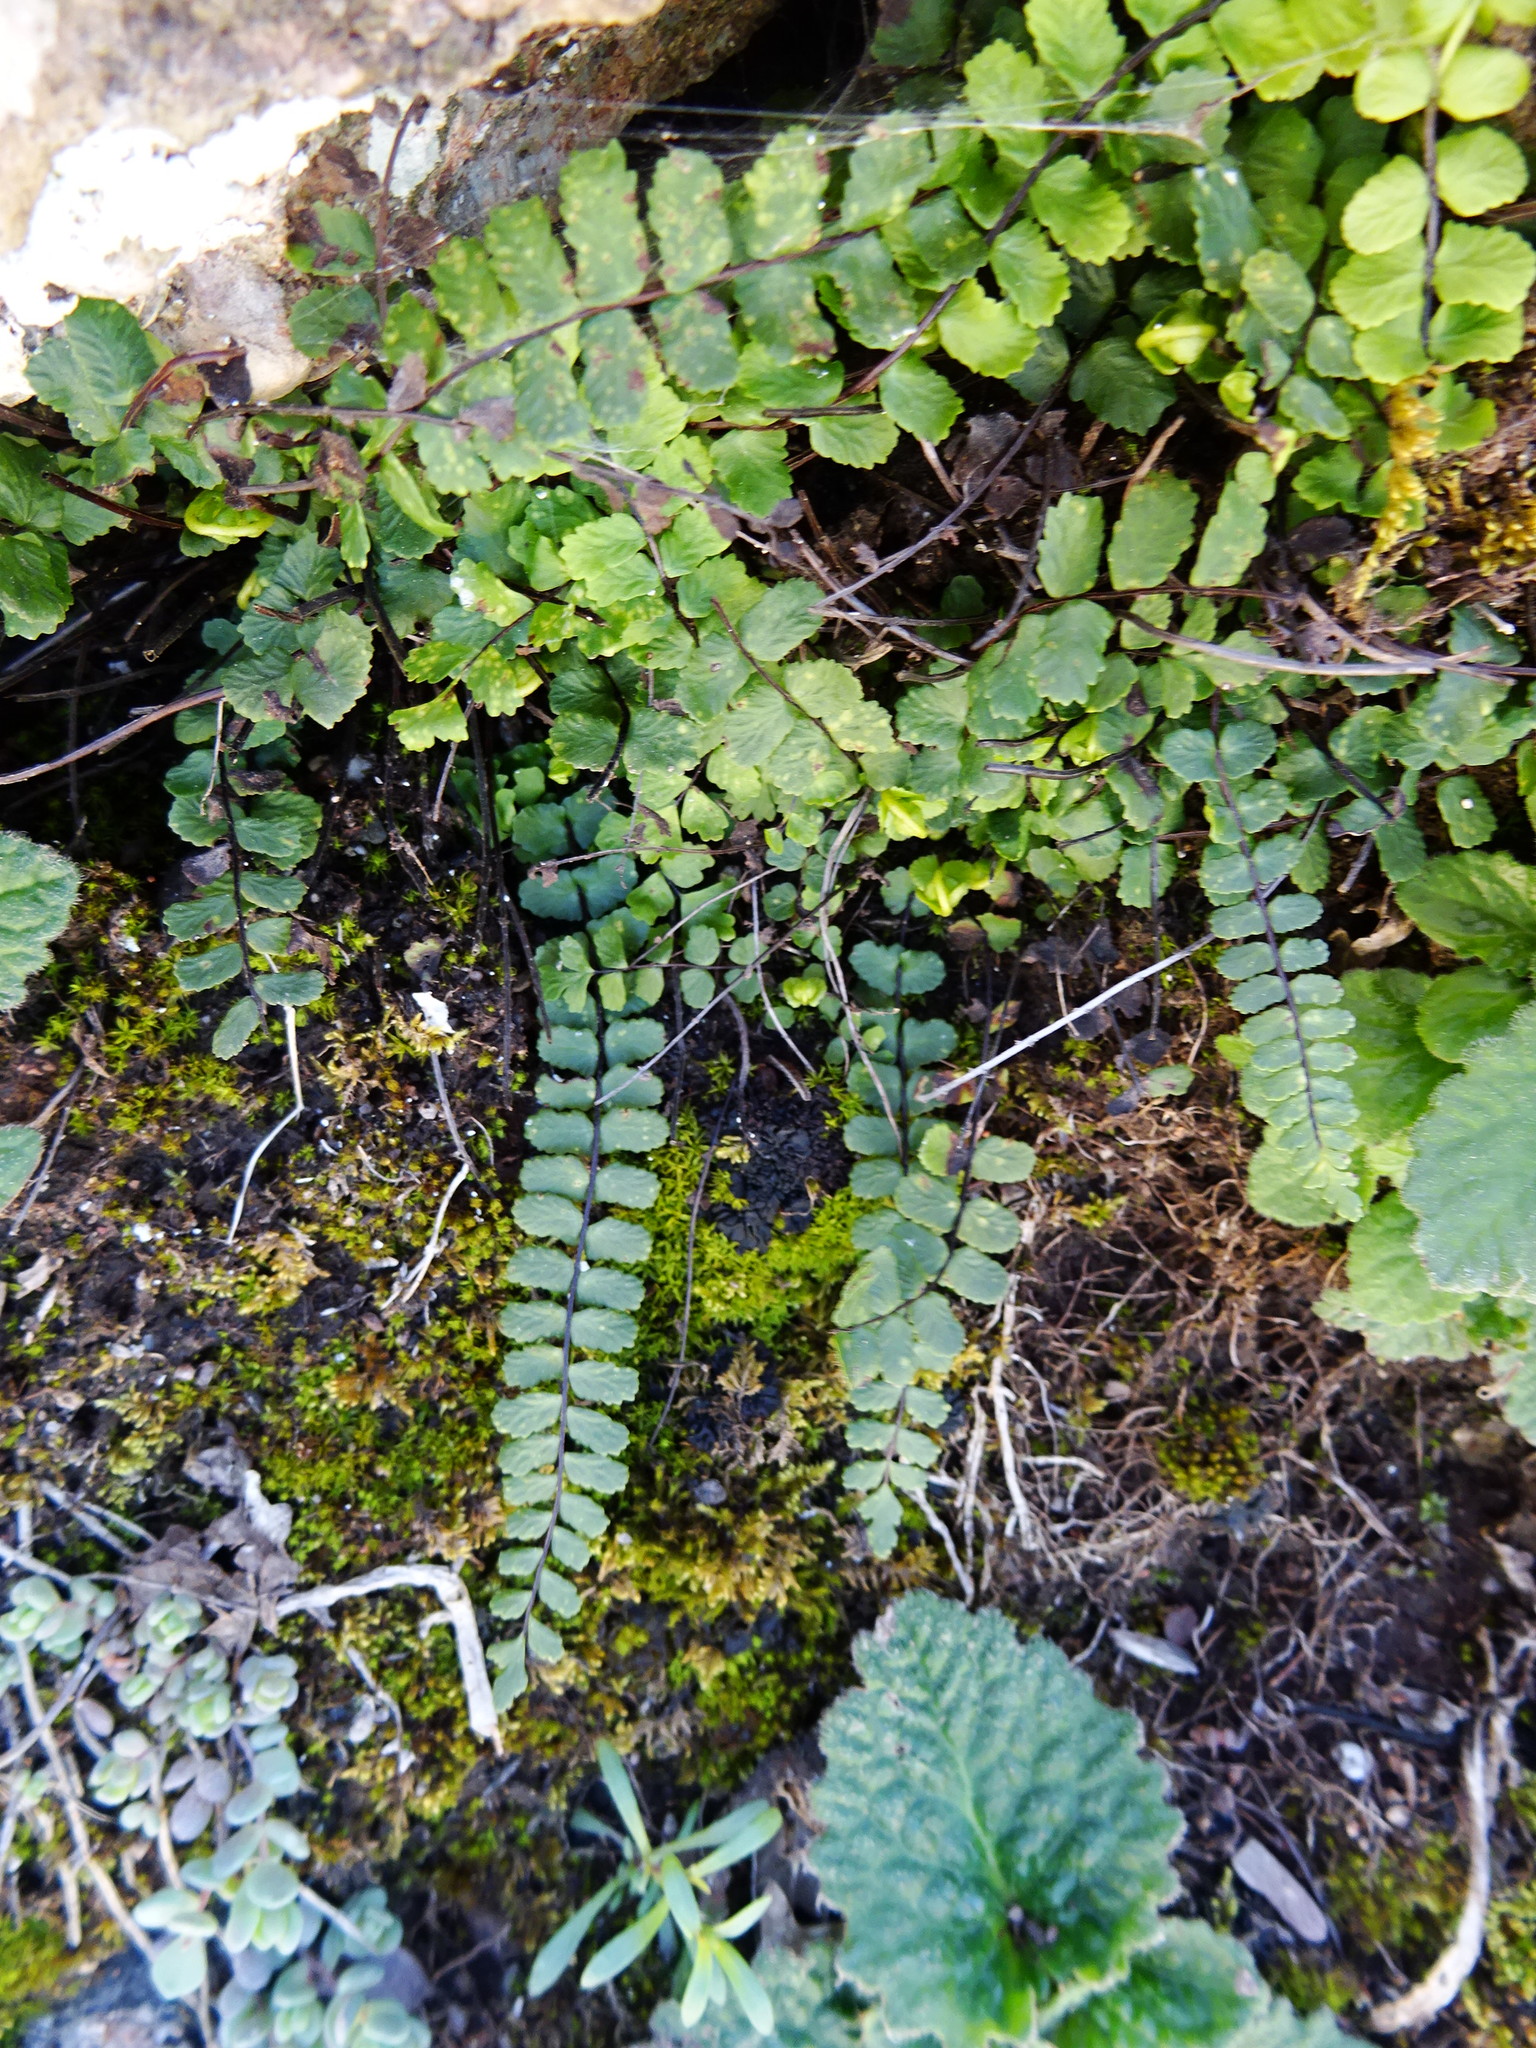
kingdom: Plantae
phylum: Tracheophyta
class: Polypodiopsida
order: Polypodiales
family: Aspleniaceae
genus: Asplenium
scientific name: Asplenium trichomanes
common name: Maidenhair spleenwort
